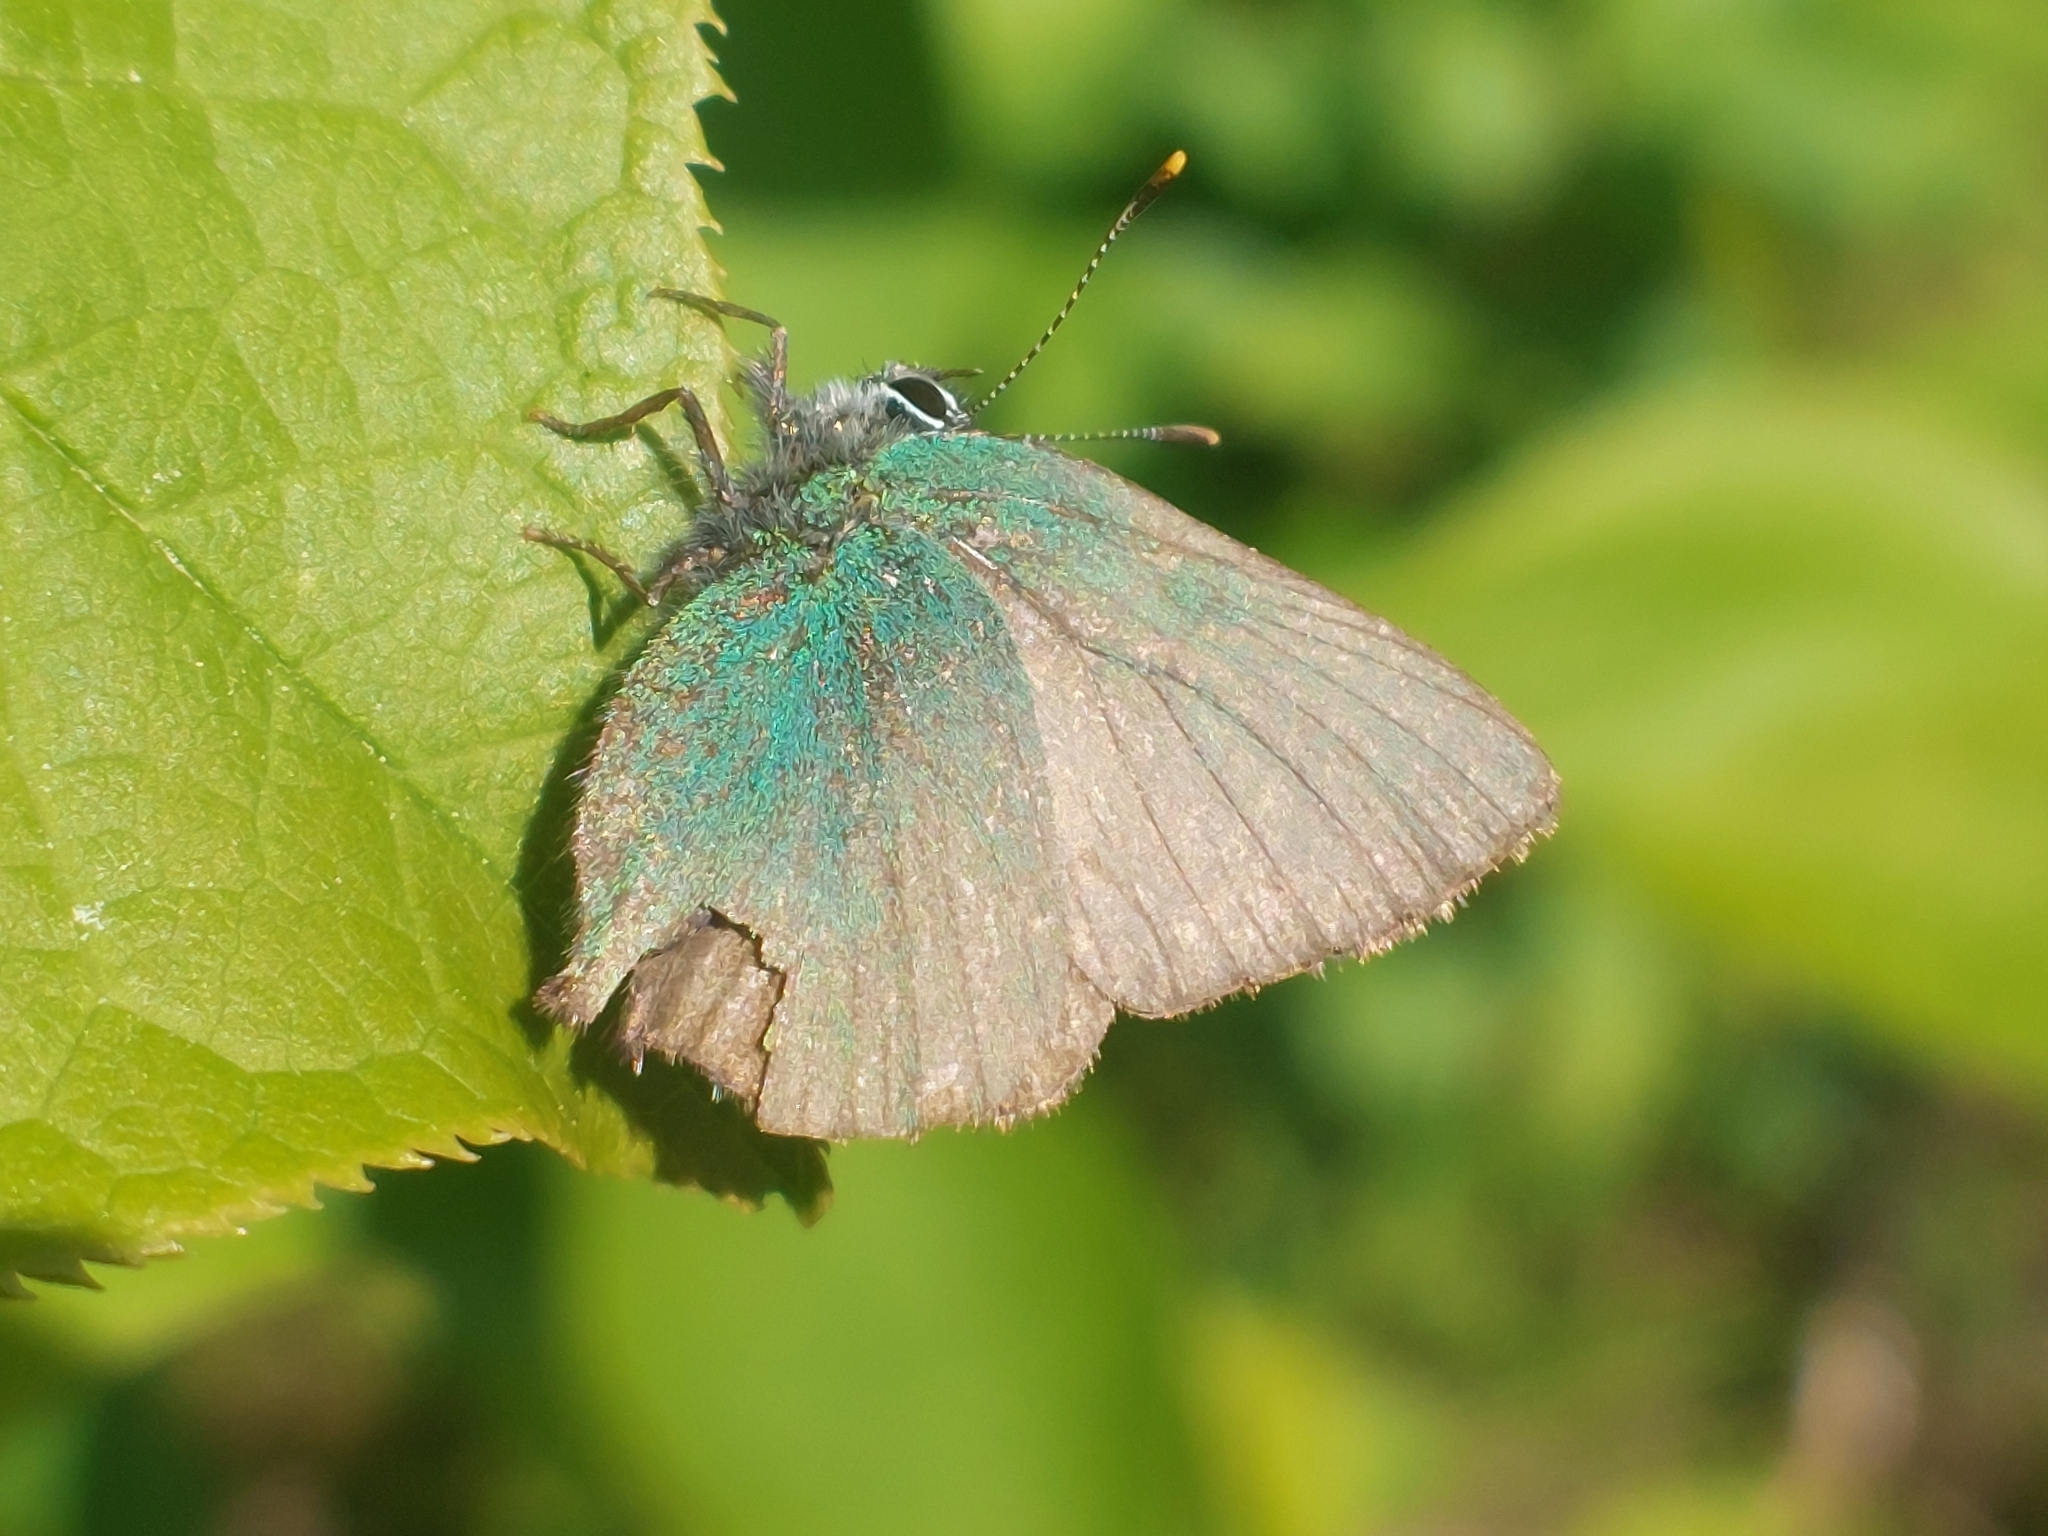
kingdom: Animalia
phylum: Arthropoda
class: Insecta
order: Lepidoptera
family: Lycaenidae
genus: Callophrys
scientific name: Callophrys rubi
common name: Green hairstreak
